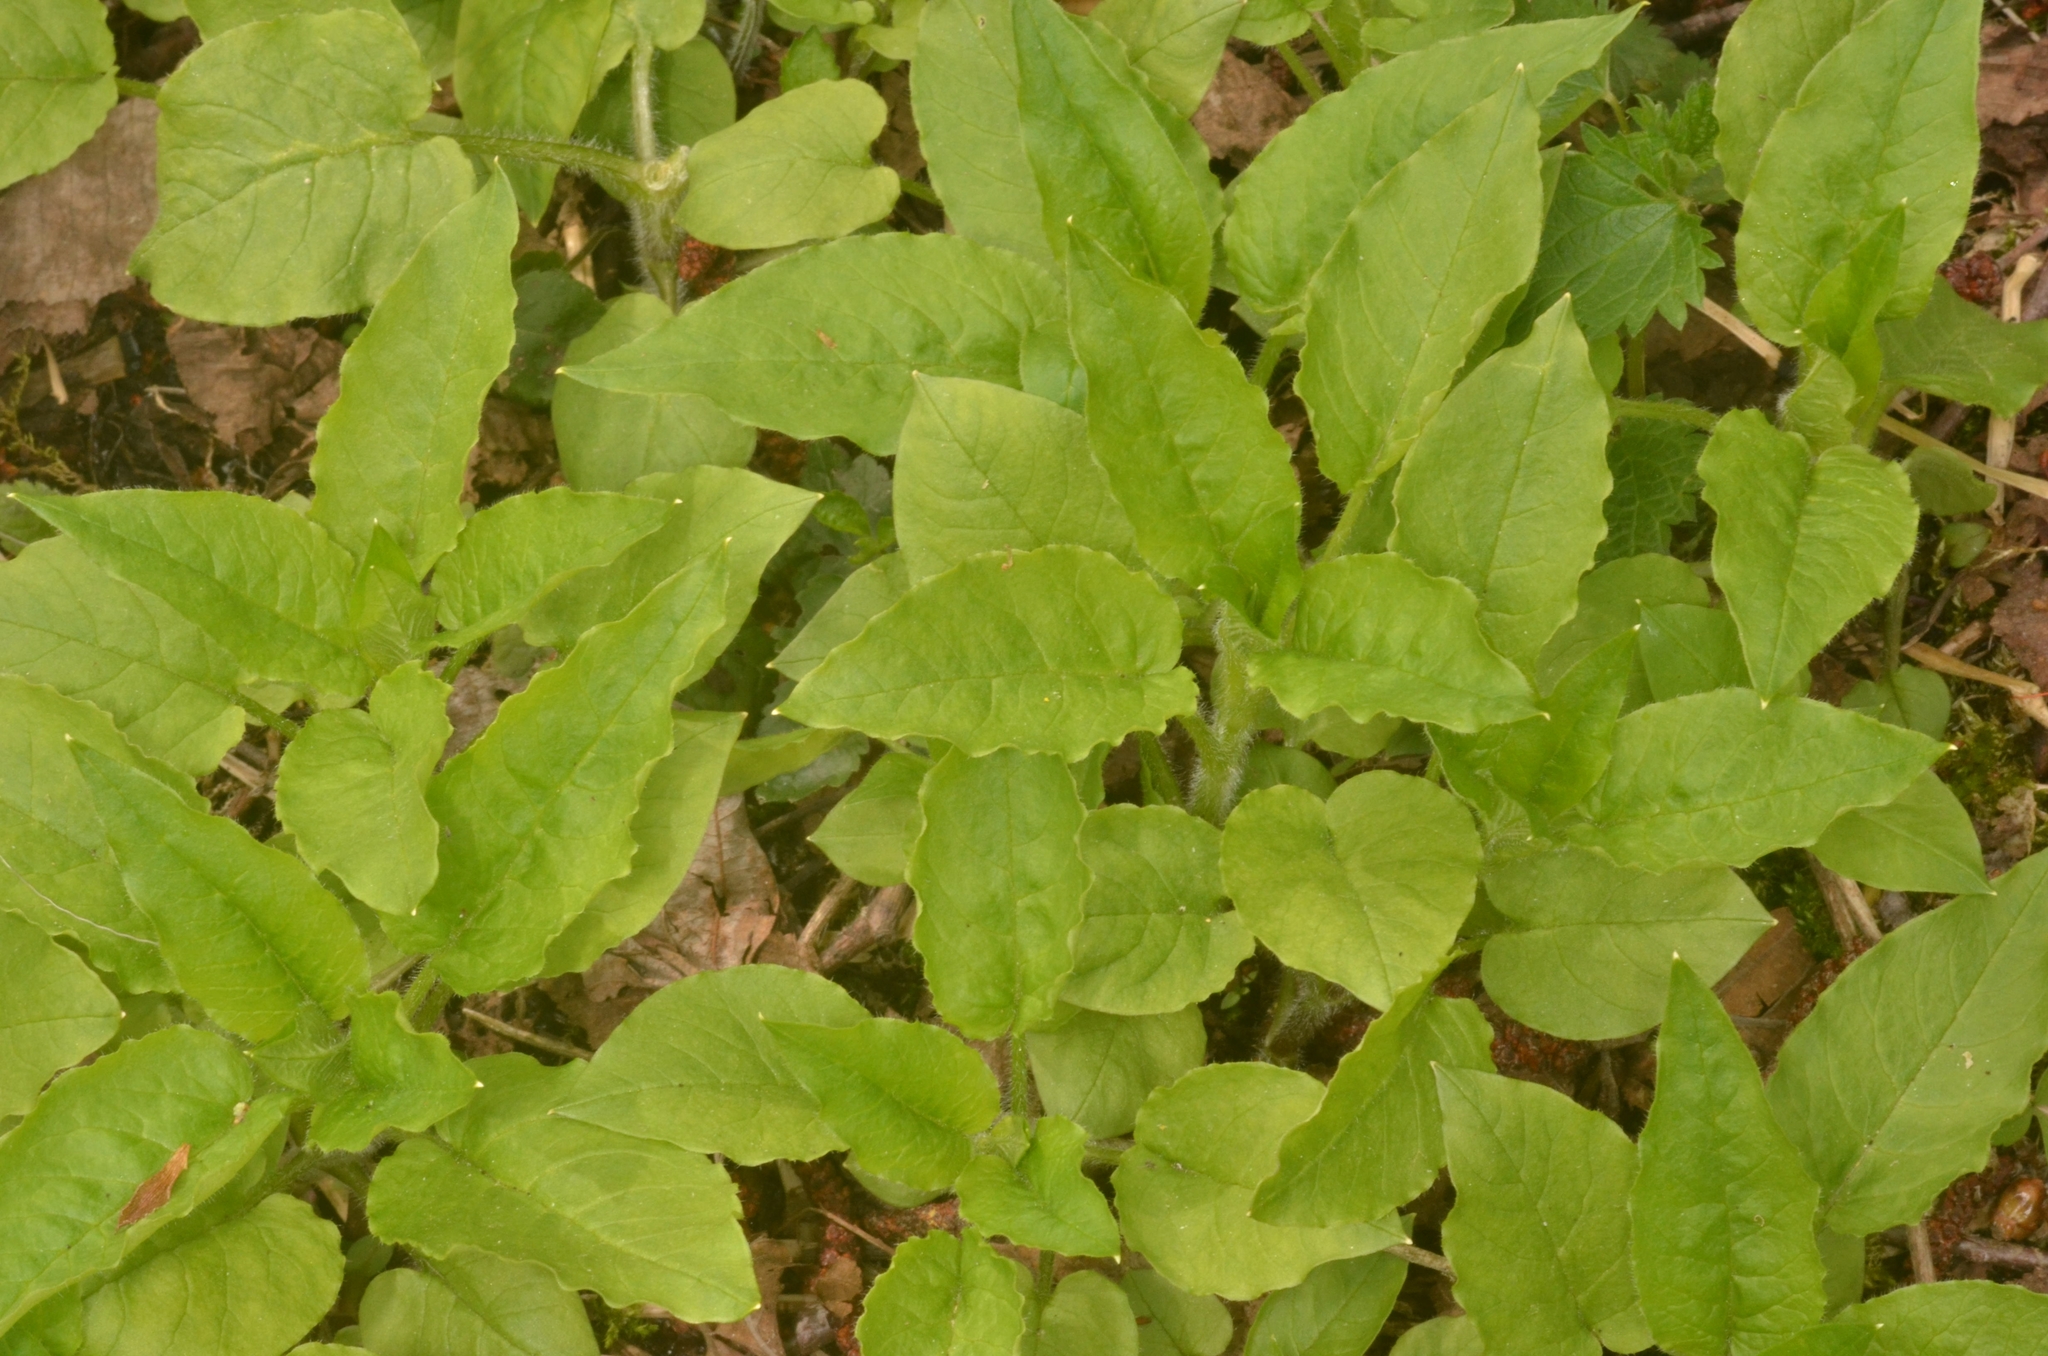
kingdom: Plantae
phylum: Tracheophyta
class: Magnoliopsida
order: Caryophyllales
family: Caryophyllaceae
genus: Stellaria
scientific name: Stellaria nemorum
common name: Wood stitchwort
